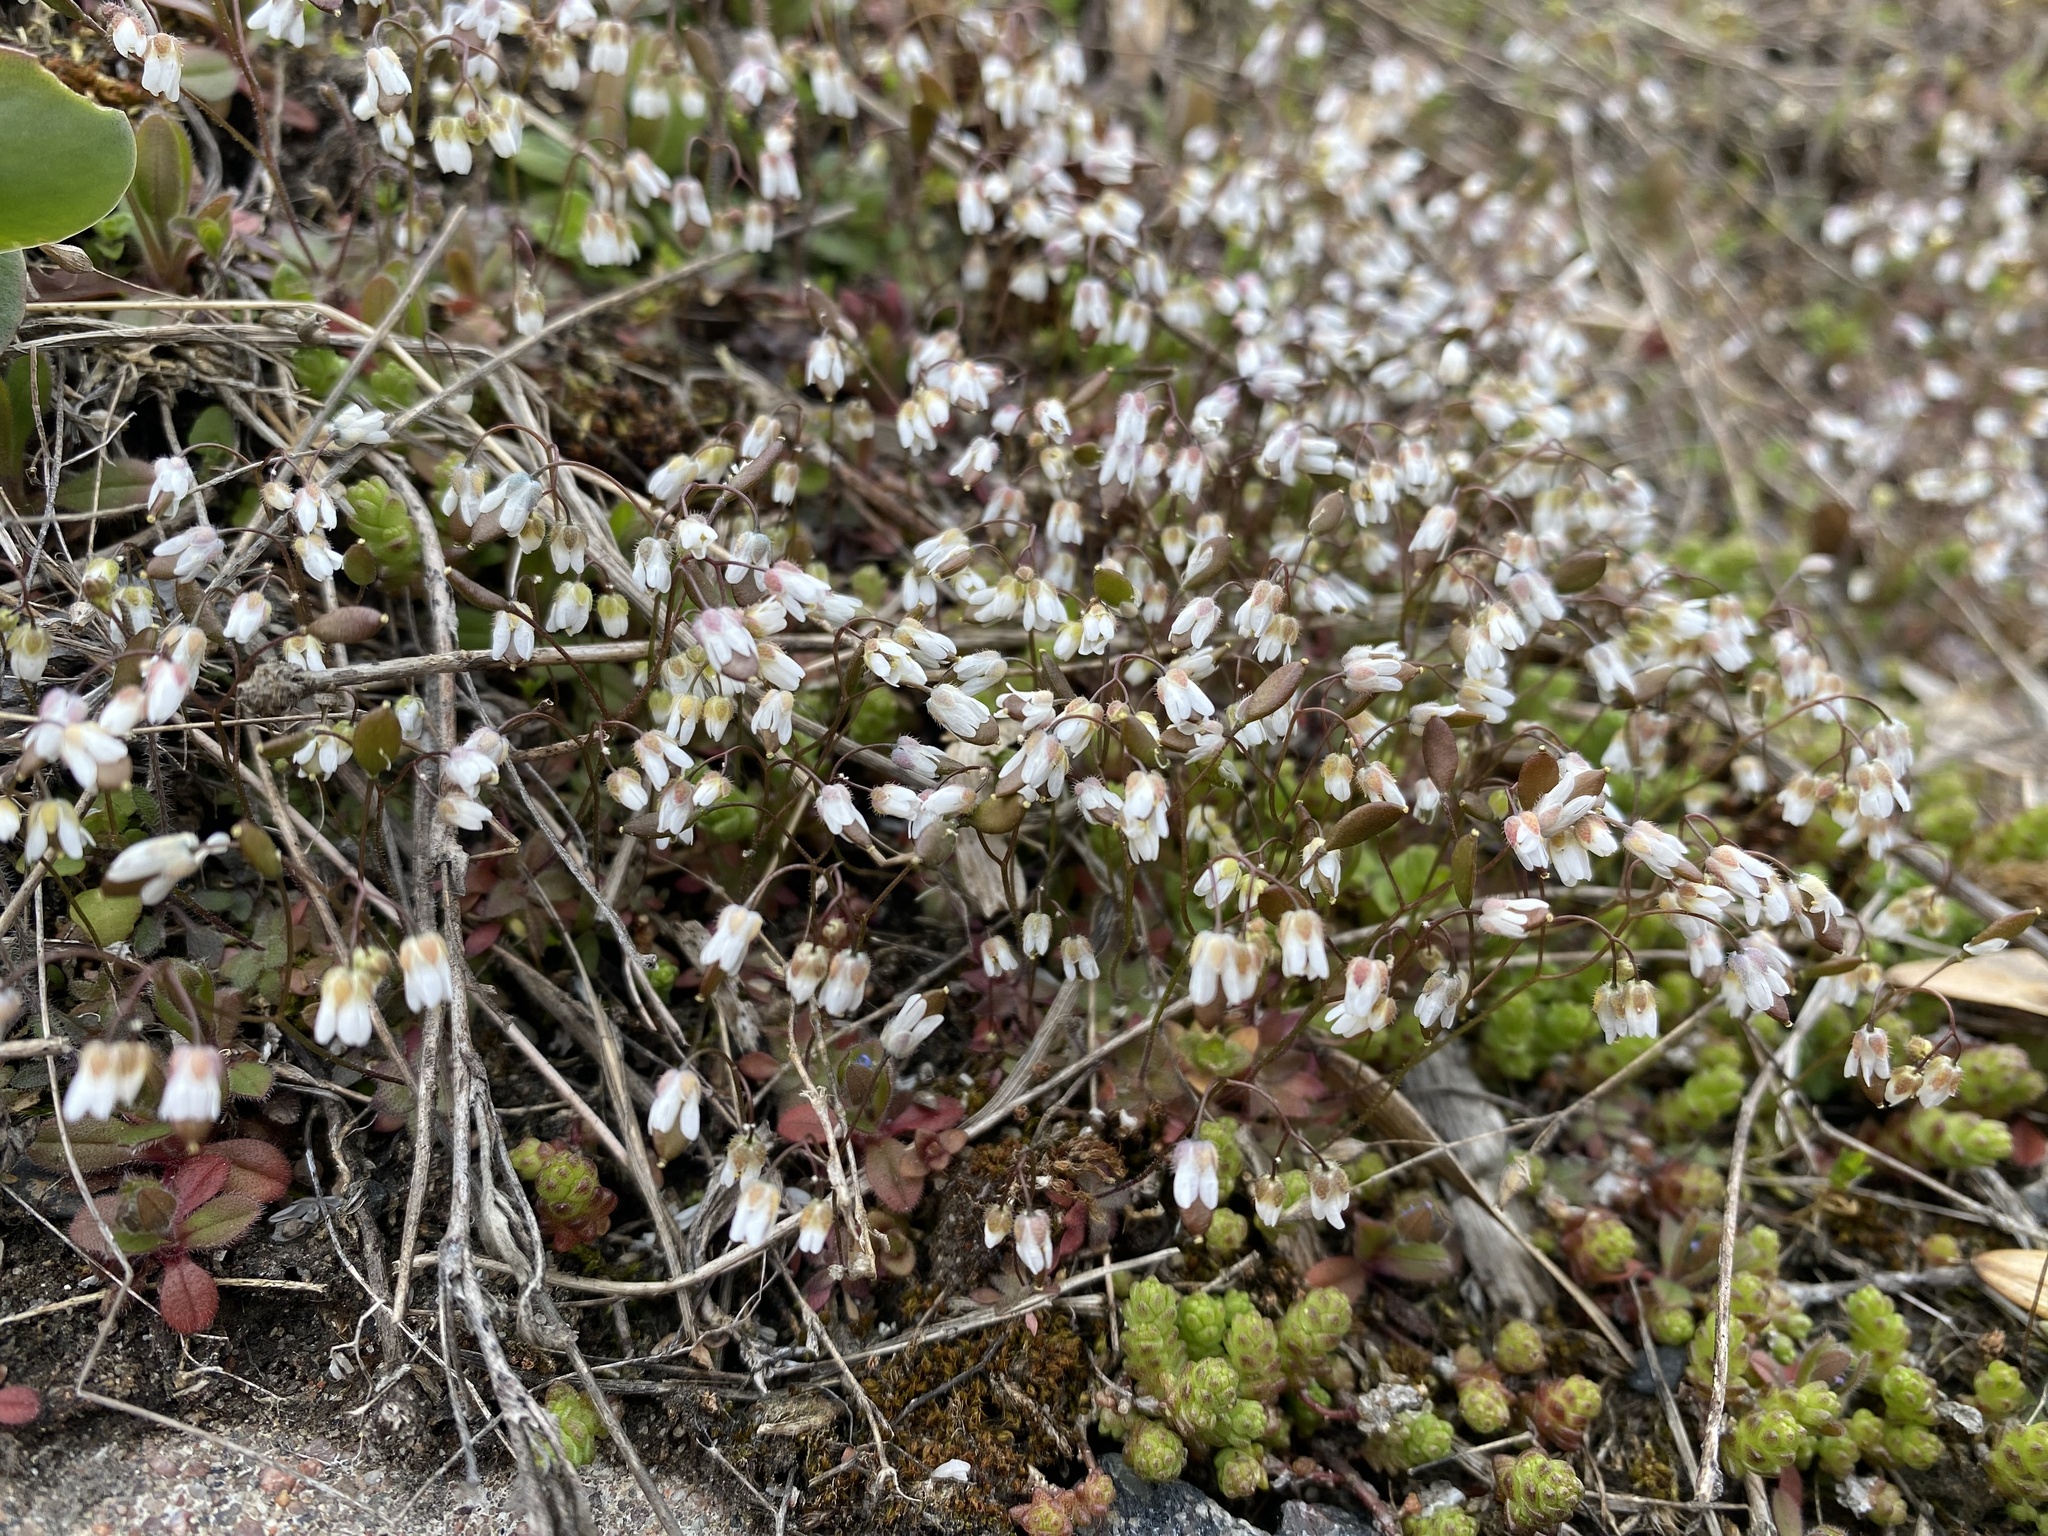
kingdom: Plantae
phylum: Tracheophyta
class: Magnoliopsida
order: Brassicales
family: Brassicaceae
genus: Draba
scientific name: Draba verna
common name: Spring draba
